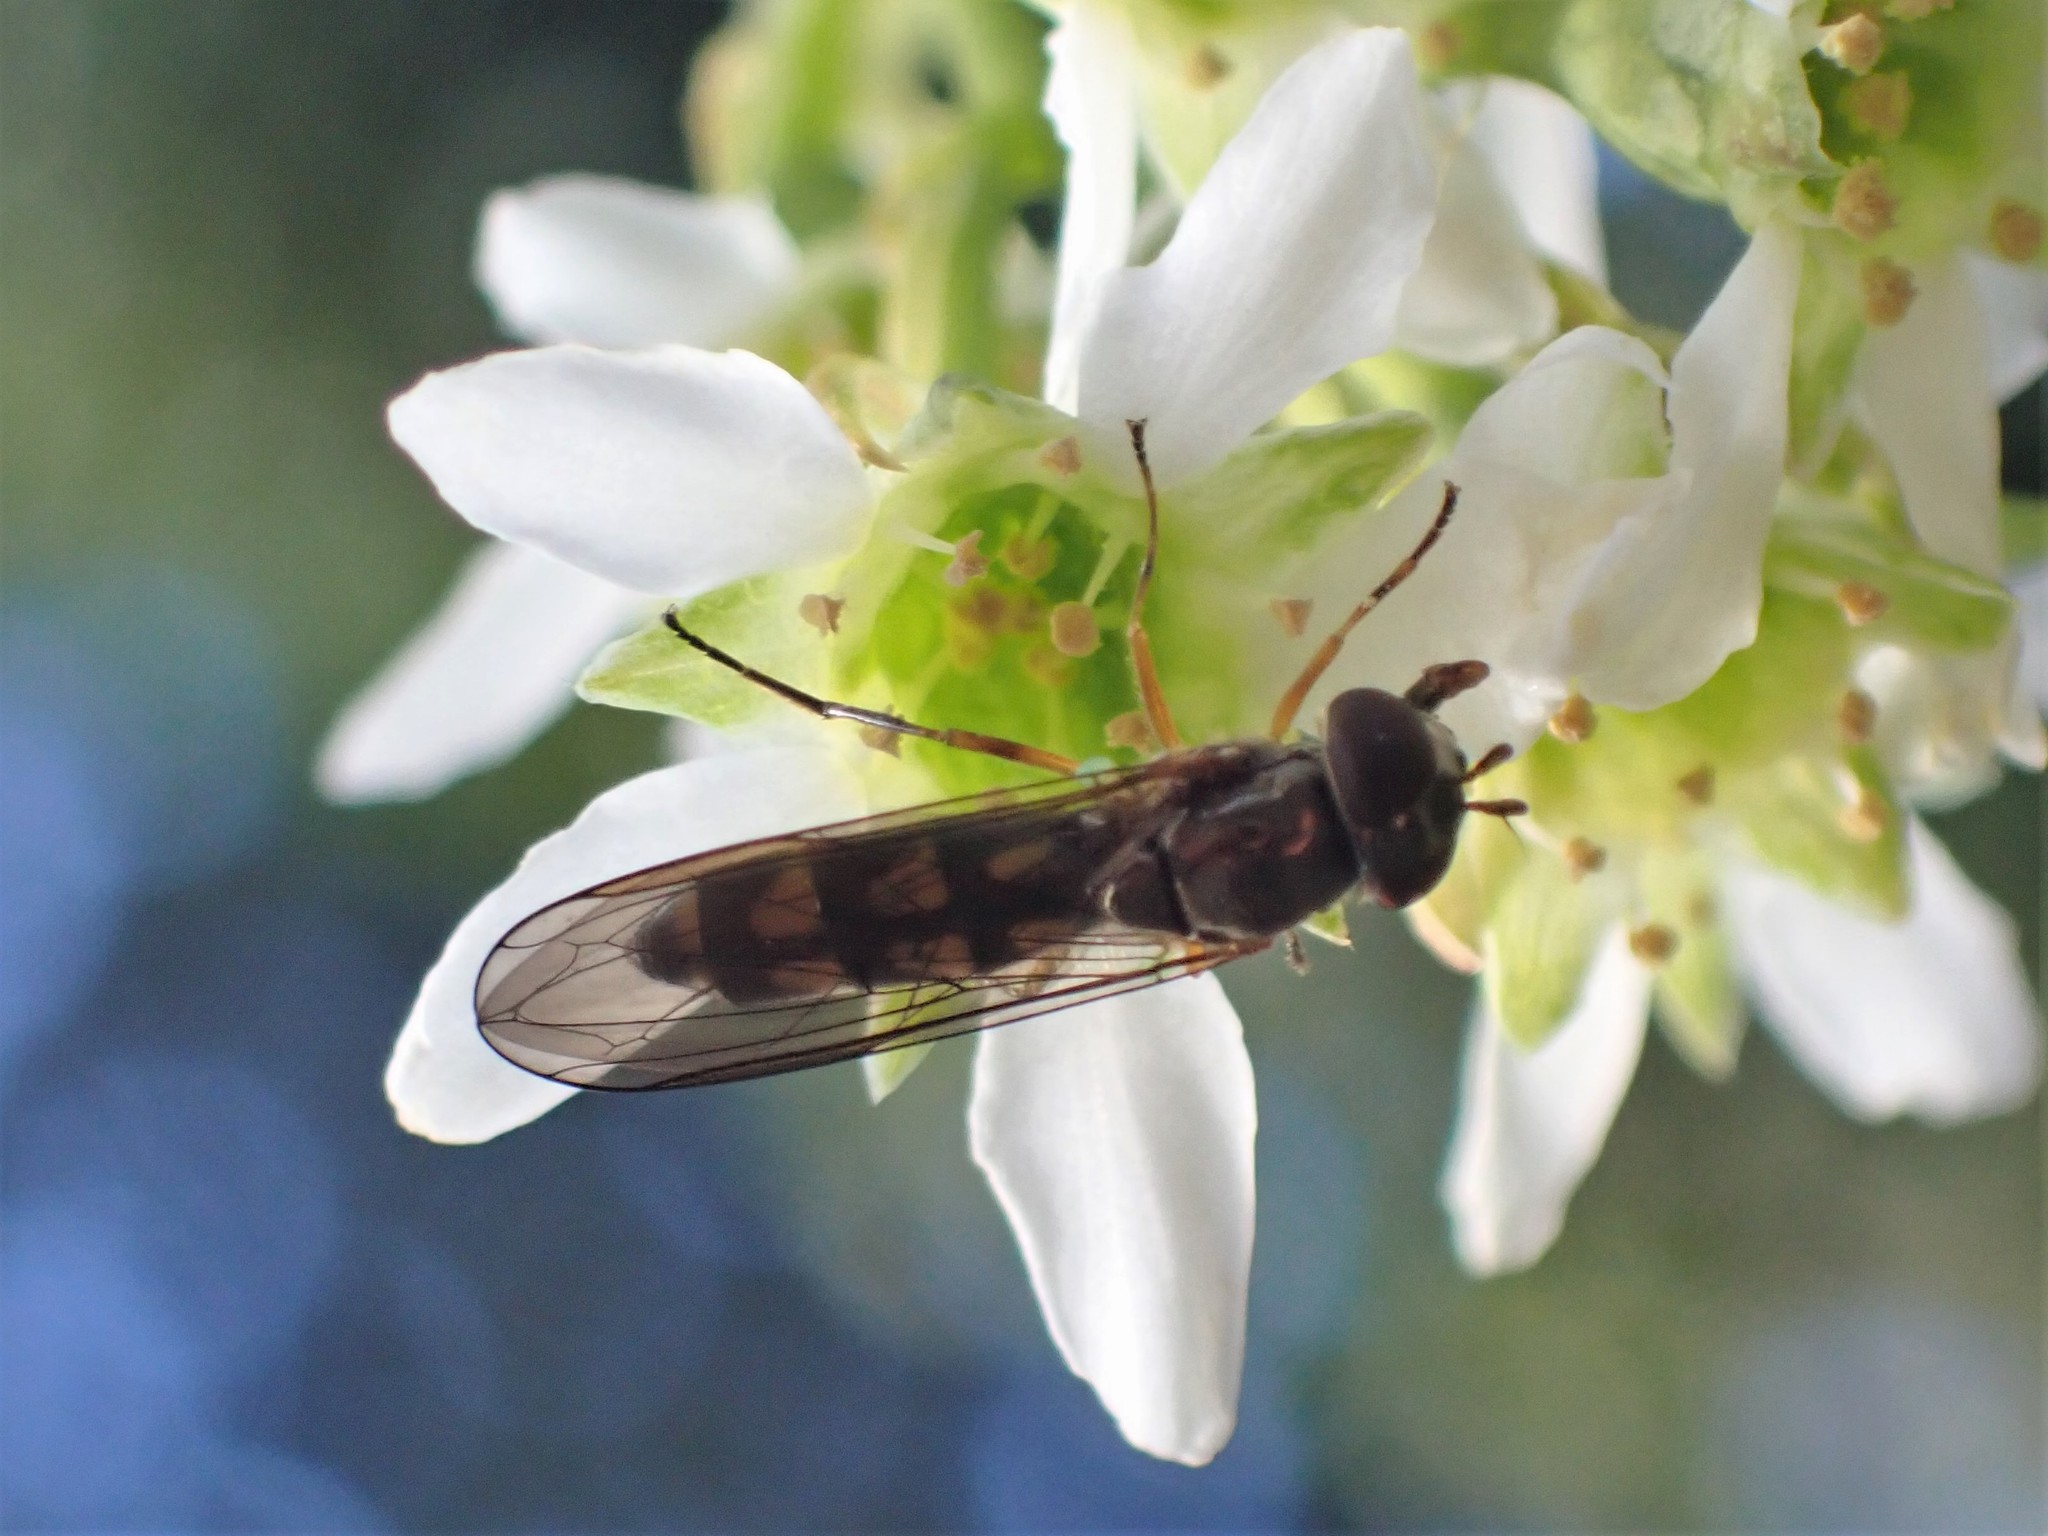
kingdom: Animalia
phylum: Arthropoda
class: Insecta
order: Diptera
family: Syrphidae
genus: Melanostoma
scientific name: Melanostoma mellina
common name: Hover fly
